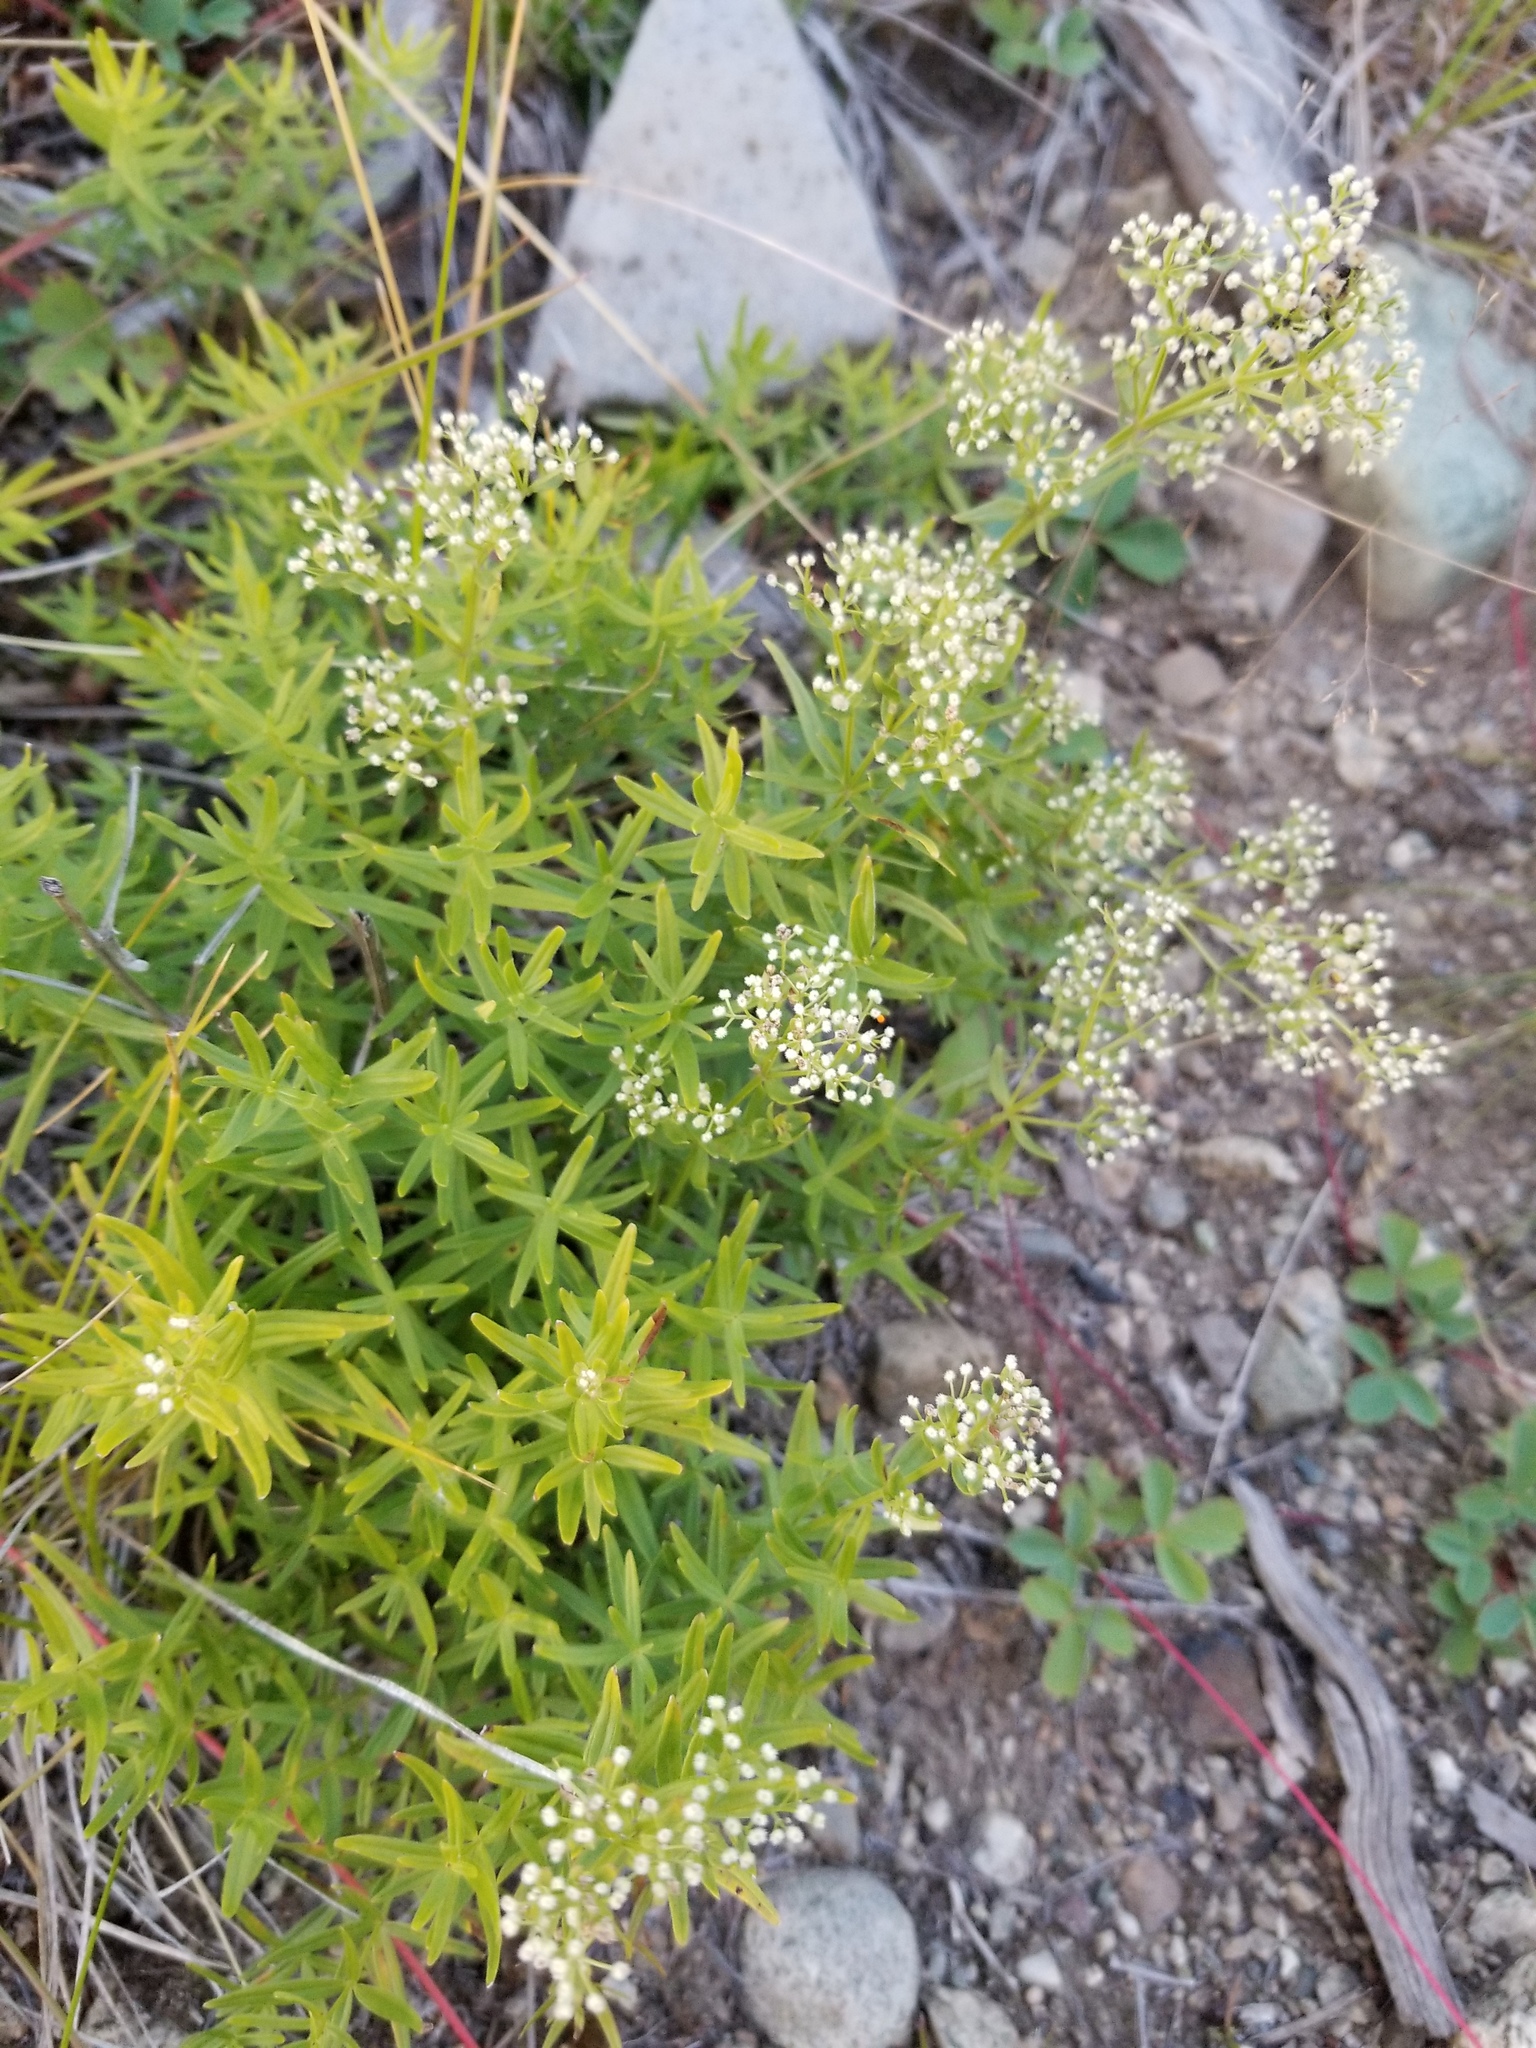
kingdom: Plantae
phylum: Tracheophyta
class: Magnoliopsida
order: Gentianales
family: Rubiaceae
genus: Galium
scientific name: Galium boreale
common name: Northern bedstraw
